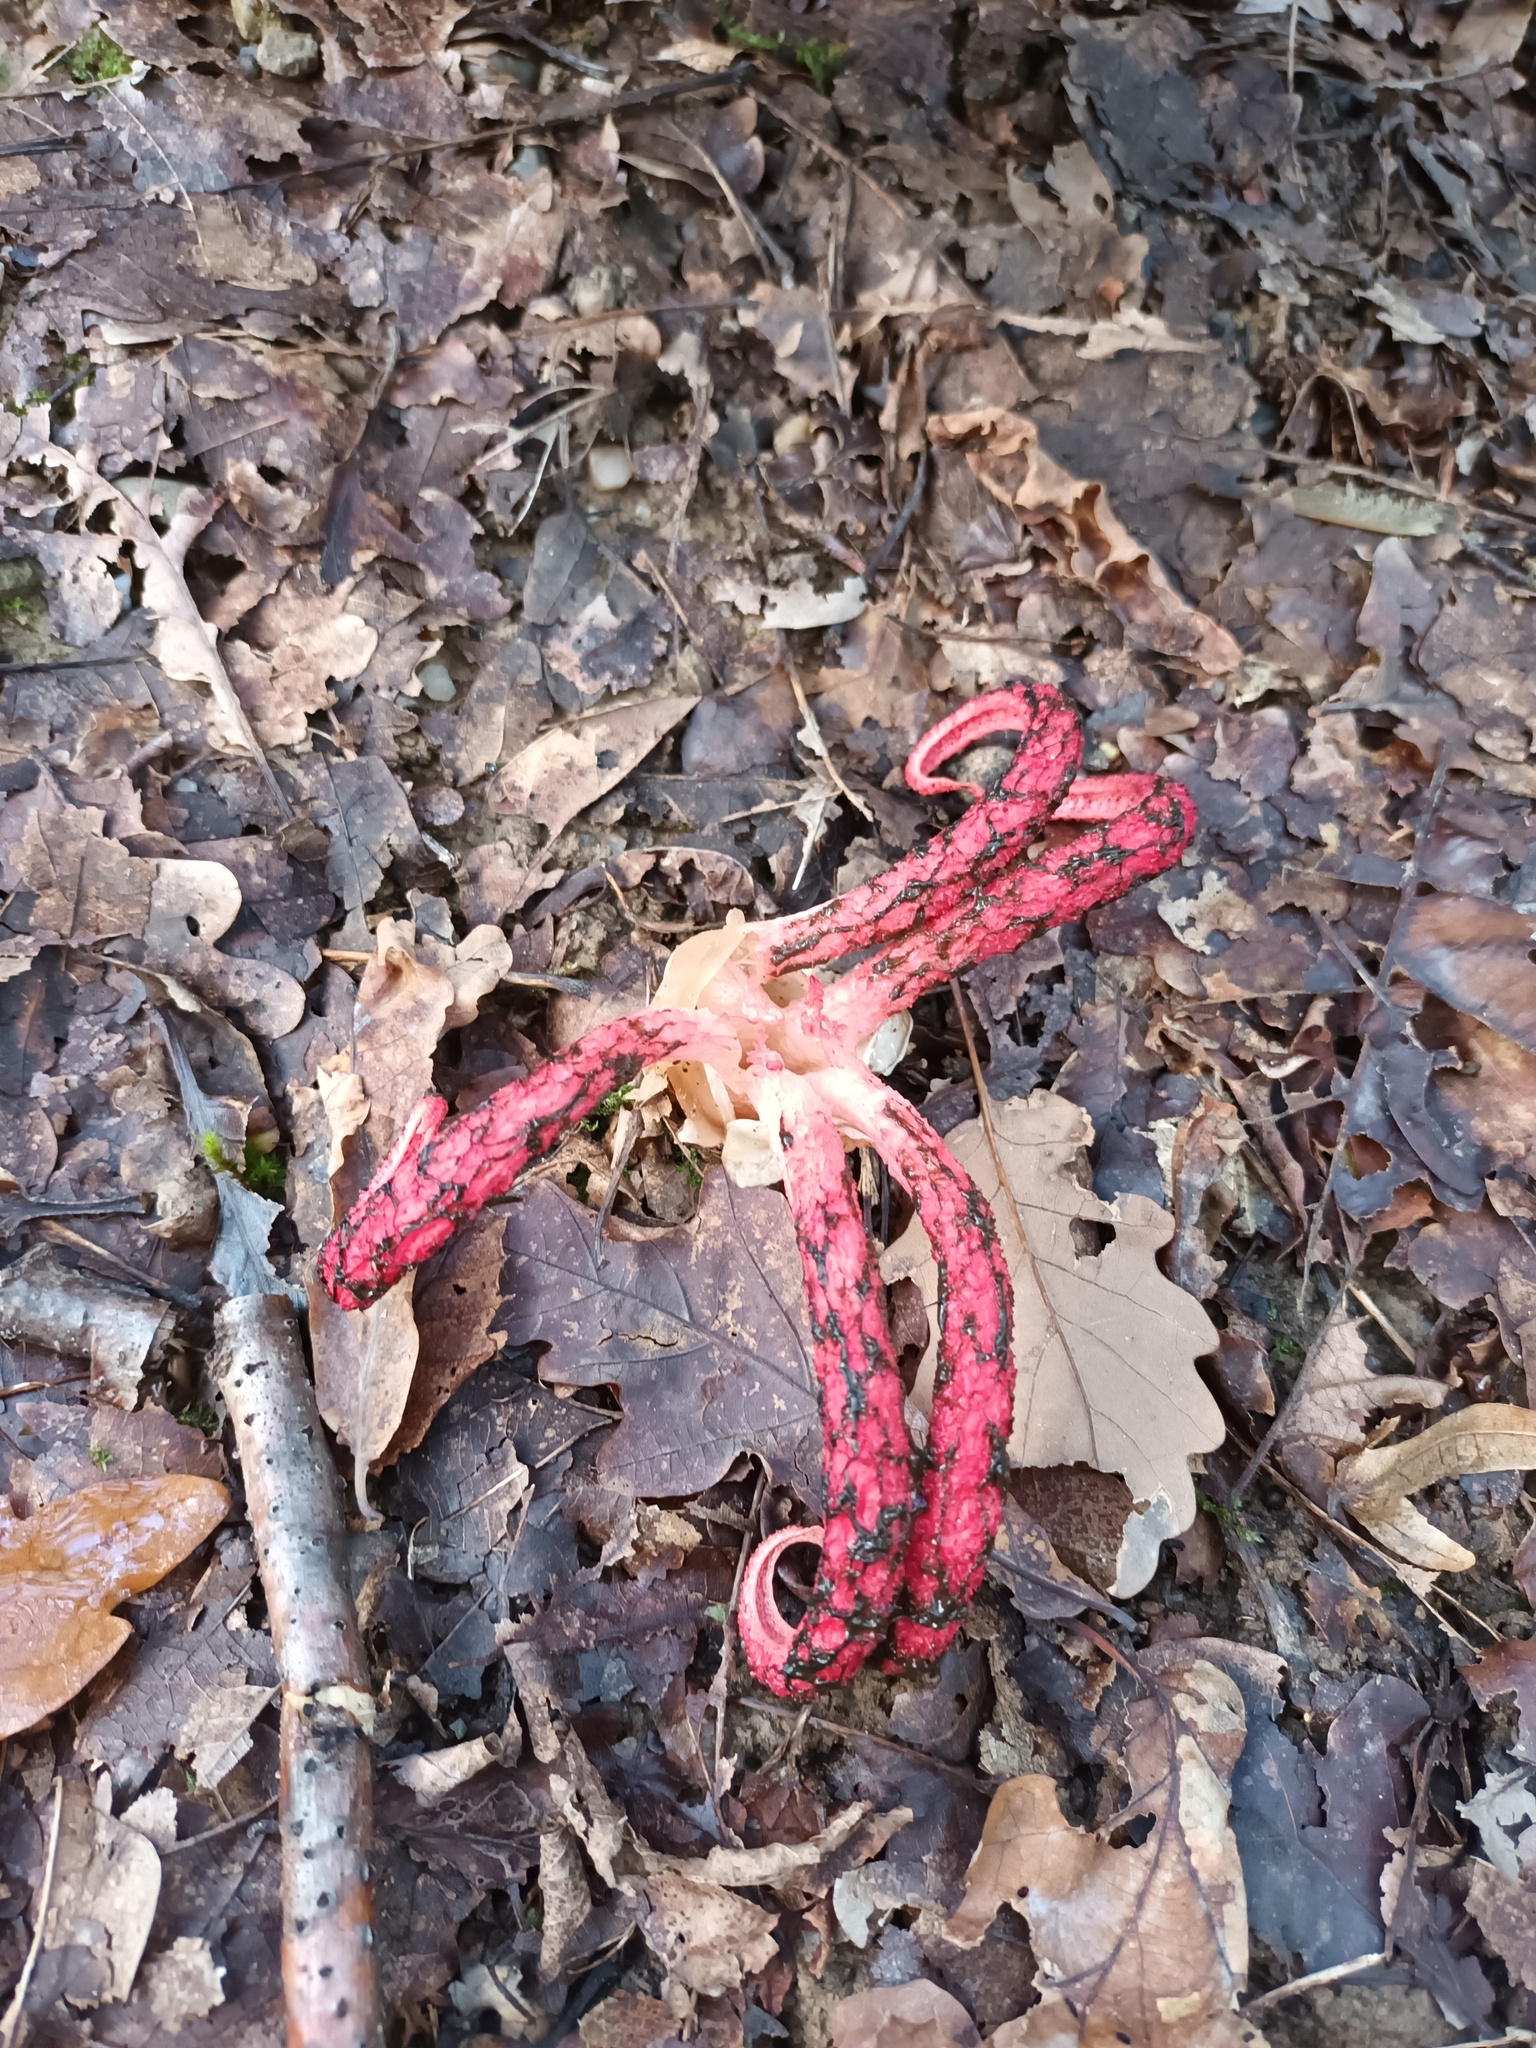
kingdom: Fungi
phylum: Basidiomycota
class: Agaricomycetes
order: Phallales
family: Phallaceae
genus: Clathrus
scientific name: Clathrus archeri
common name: Devil's fingers
